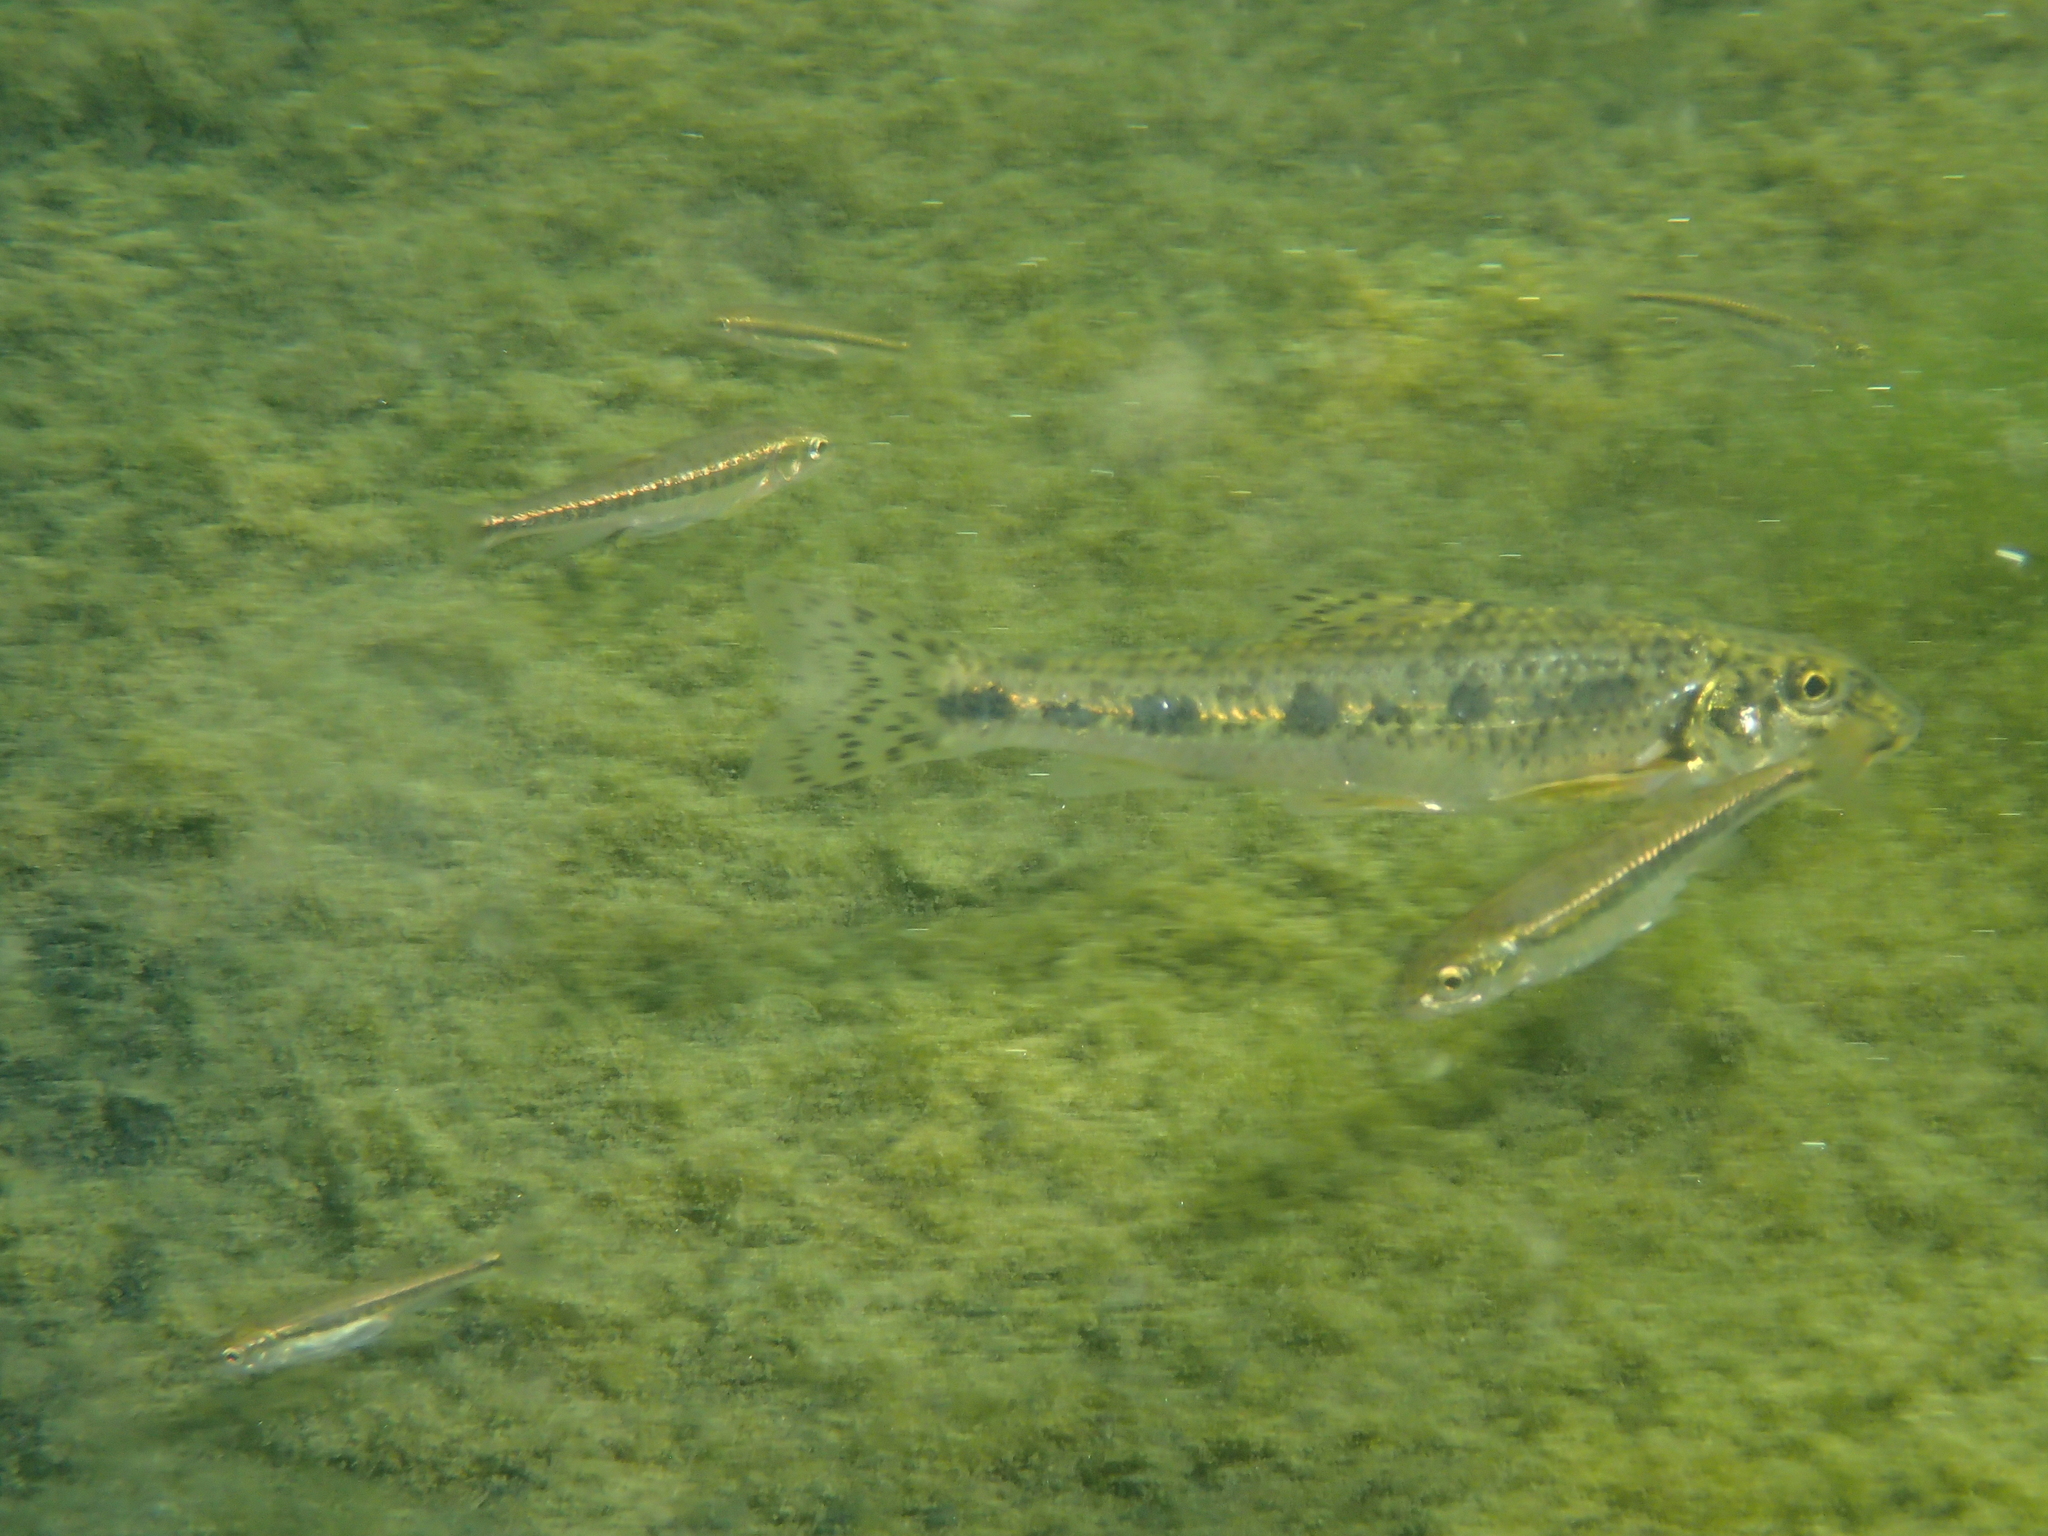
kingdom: Animalia
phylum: Chordata
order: Cypriniformes
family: Cyprinidae
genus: Gobio
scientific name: Gobio gobio
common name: Gudgeon
